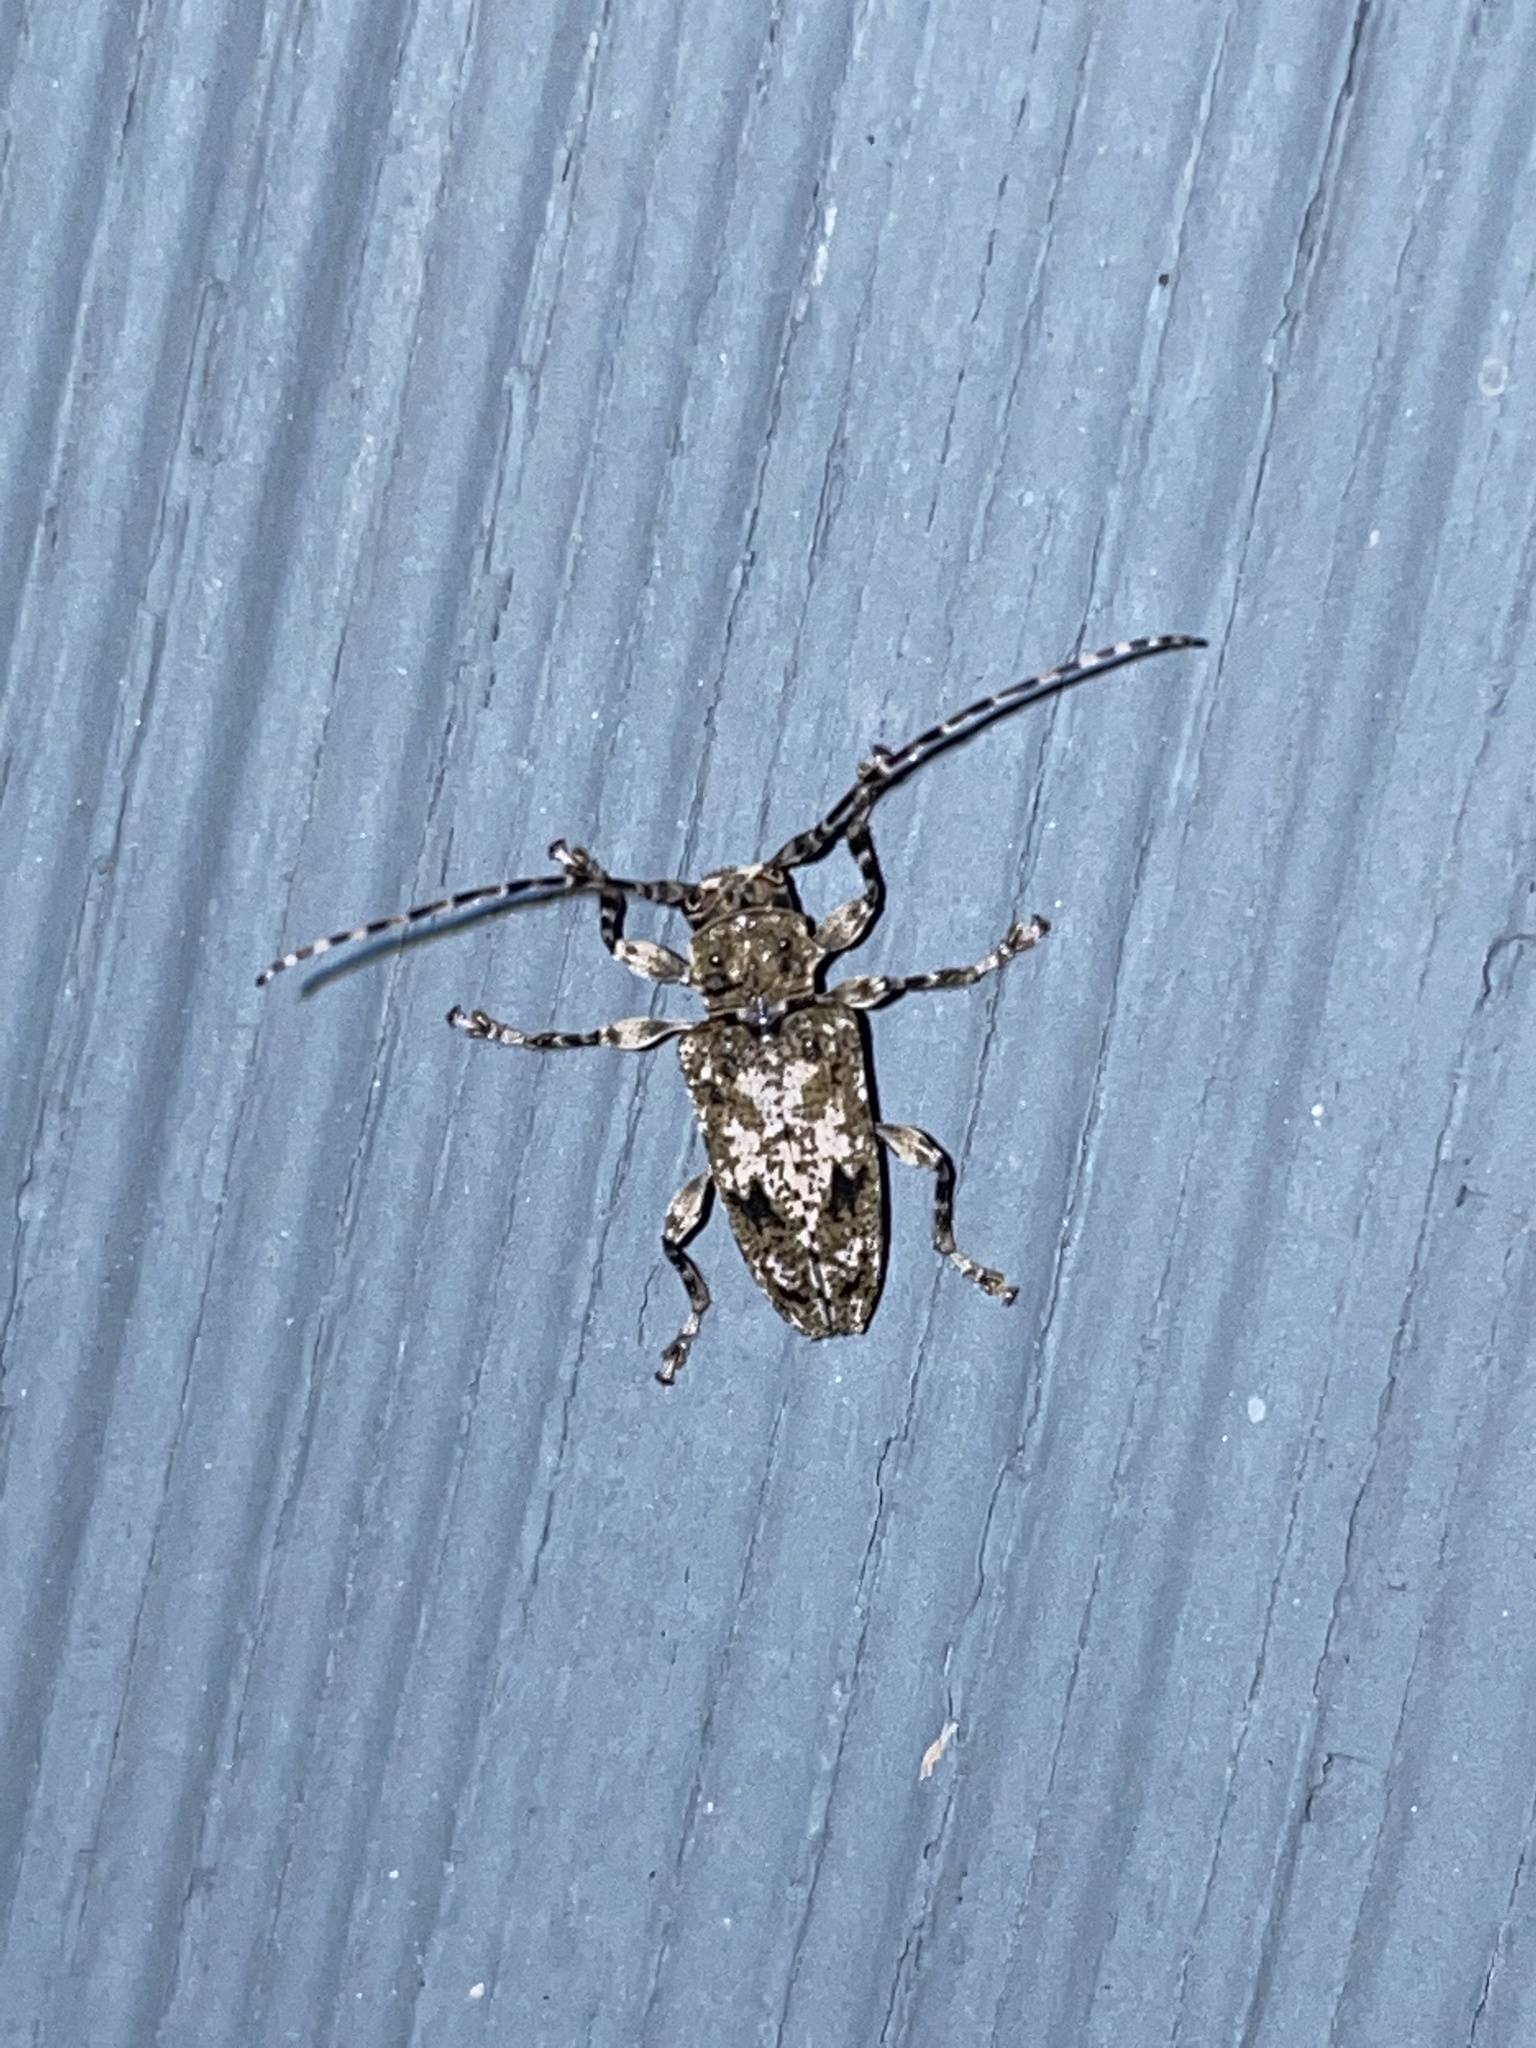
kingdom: Animalia
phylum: Arthropoda
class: Insecta
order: Coleoptera
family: Cerambycidae
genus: Aegomorphus
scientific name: Aegomorphus modestus
